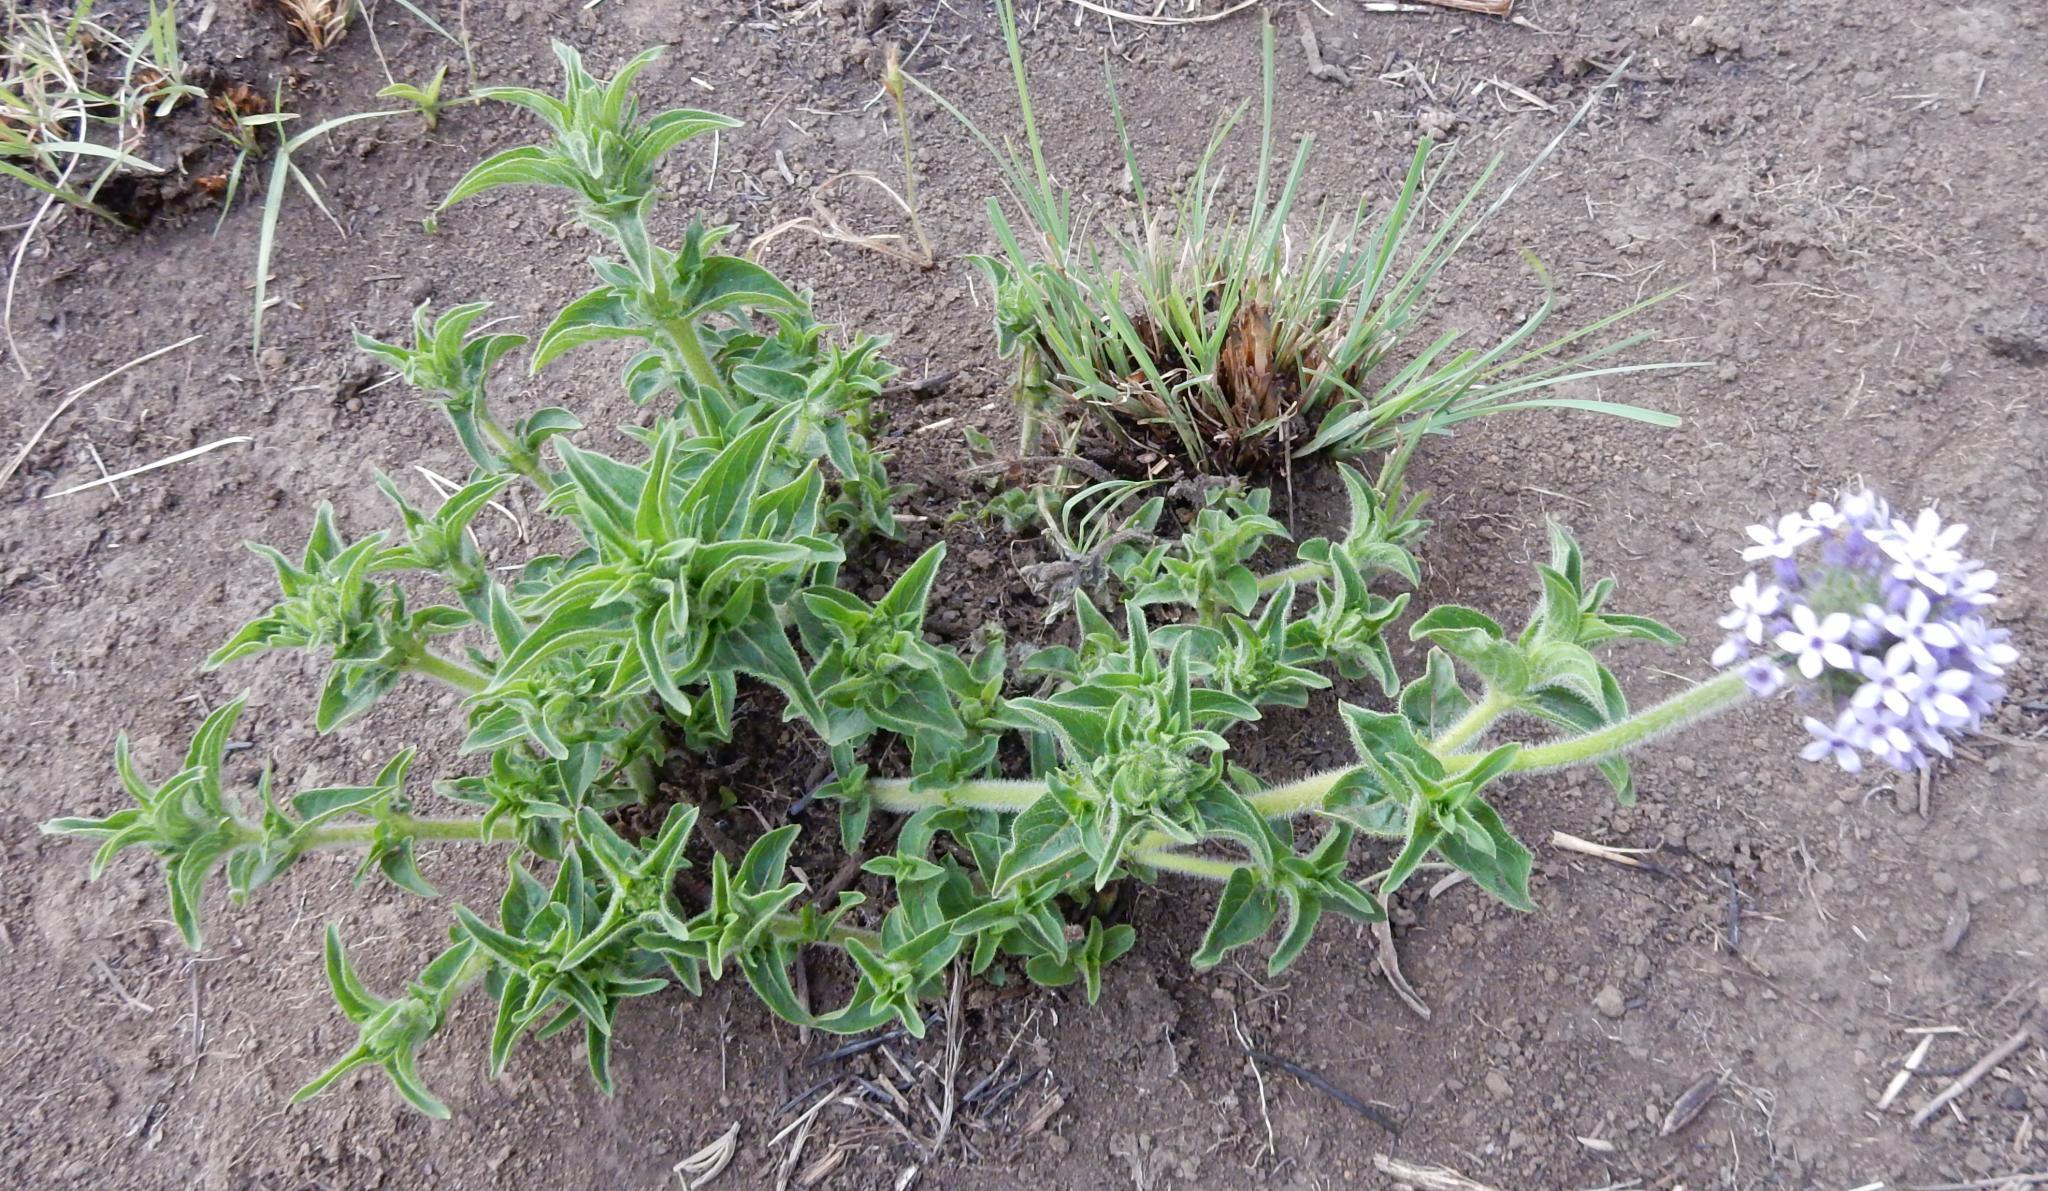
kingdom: Plantae
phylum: Tracheophyta
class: Magnoliopsida
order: Gentianales
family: Rubiaceae
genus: Pentanisia
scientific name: Pentanisia prunelloides
